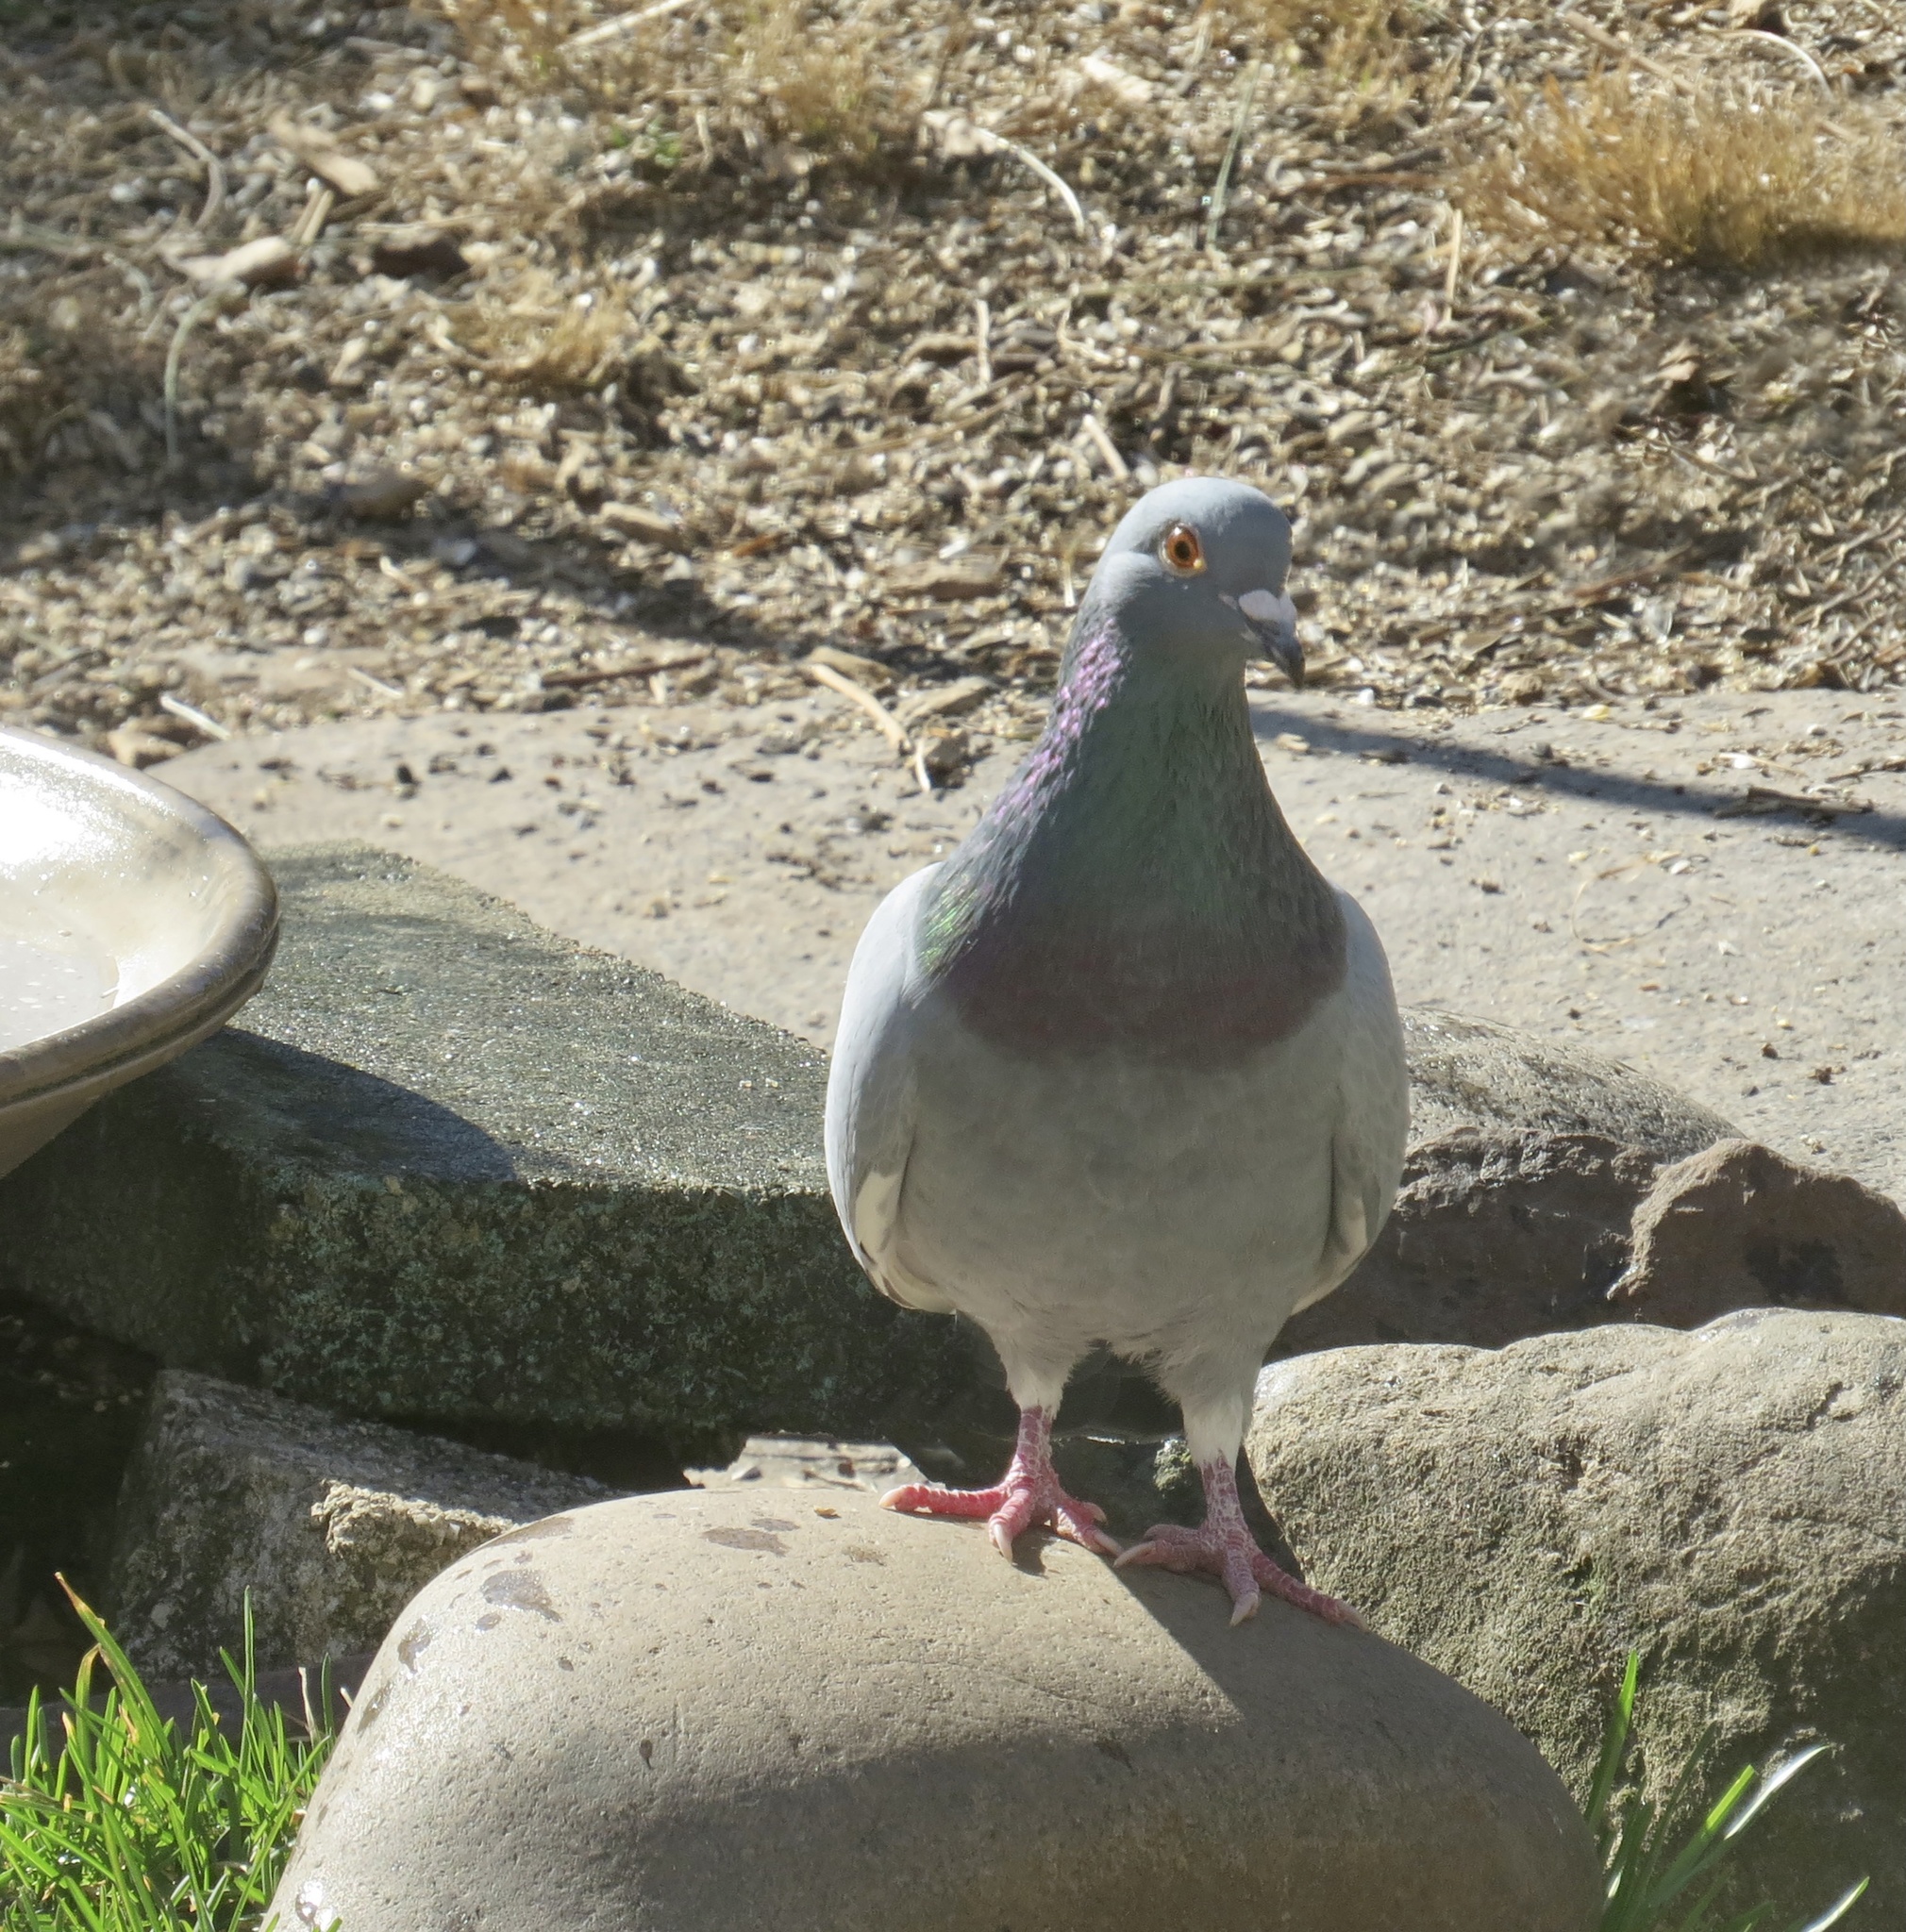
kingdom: Animalia
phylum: Chordata
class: Aves
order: Columbiformes
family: Columbidae
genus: Columba
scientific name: Columba livia
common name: Rock pigeon
